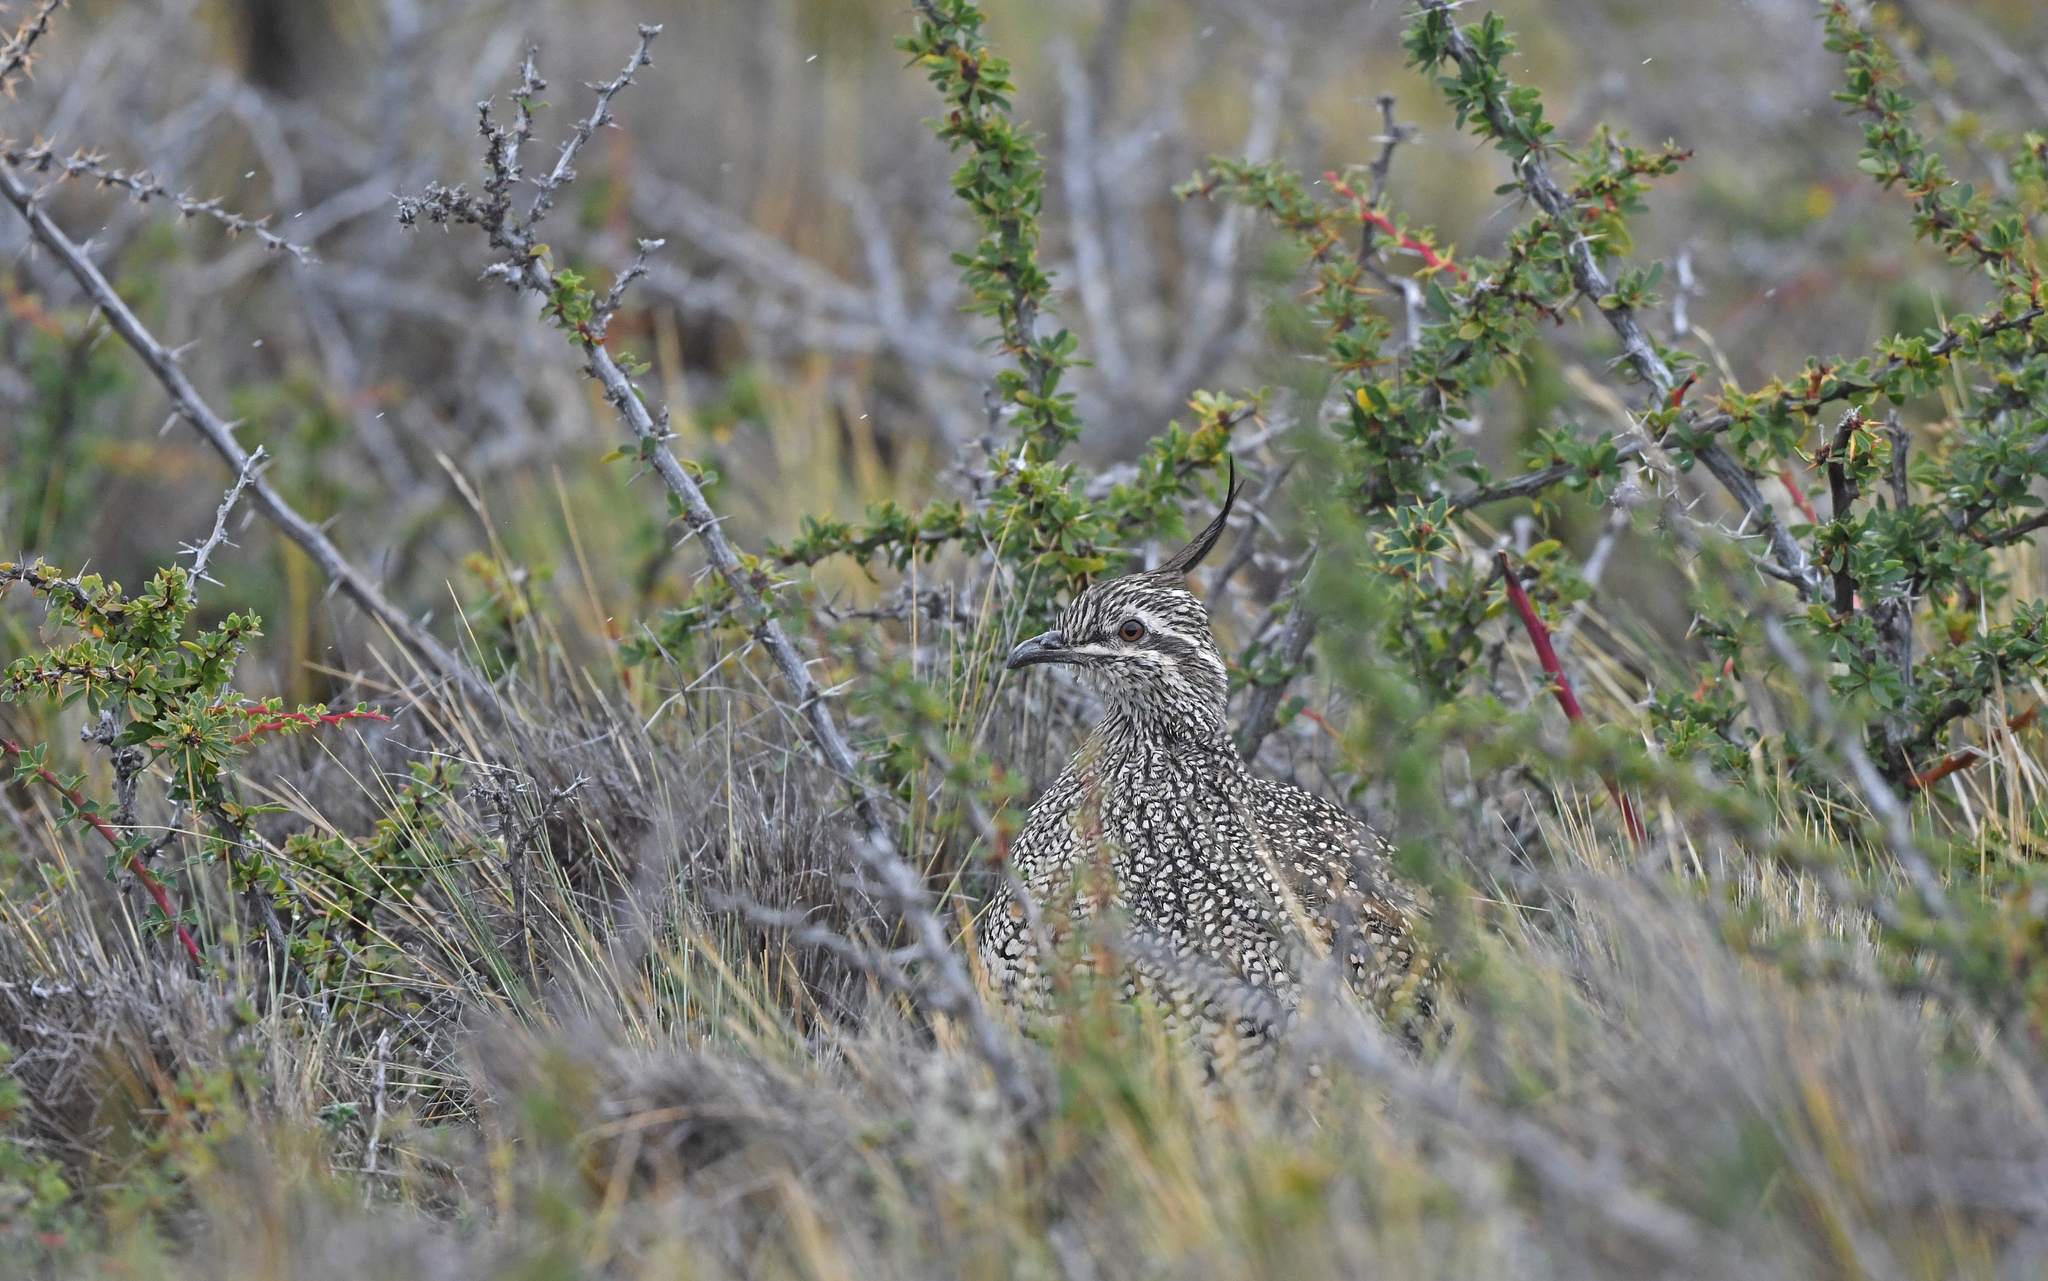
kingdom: Animalia
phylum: Chordata
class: Aves
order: Tinamiformes
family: Tinamidae
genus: Eudromia
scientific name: Eudromia elegans
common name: Elegant crested tinamou
